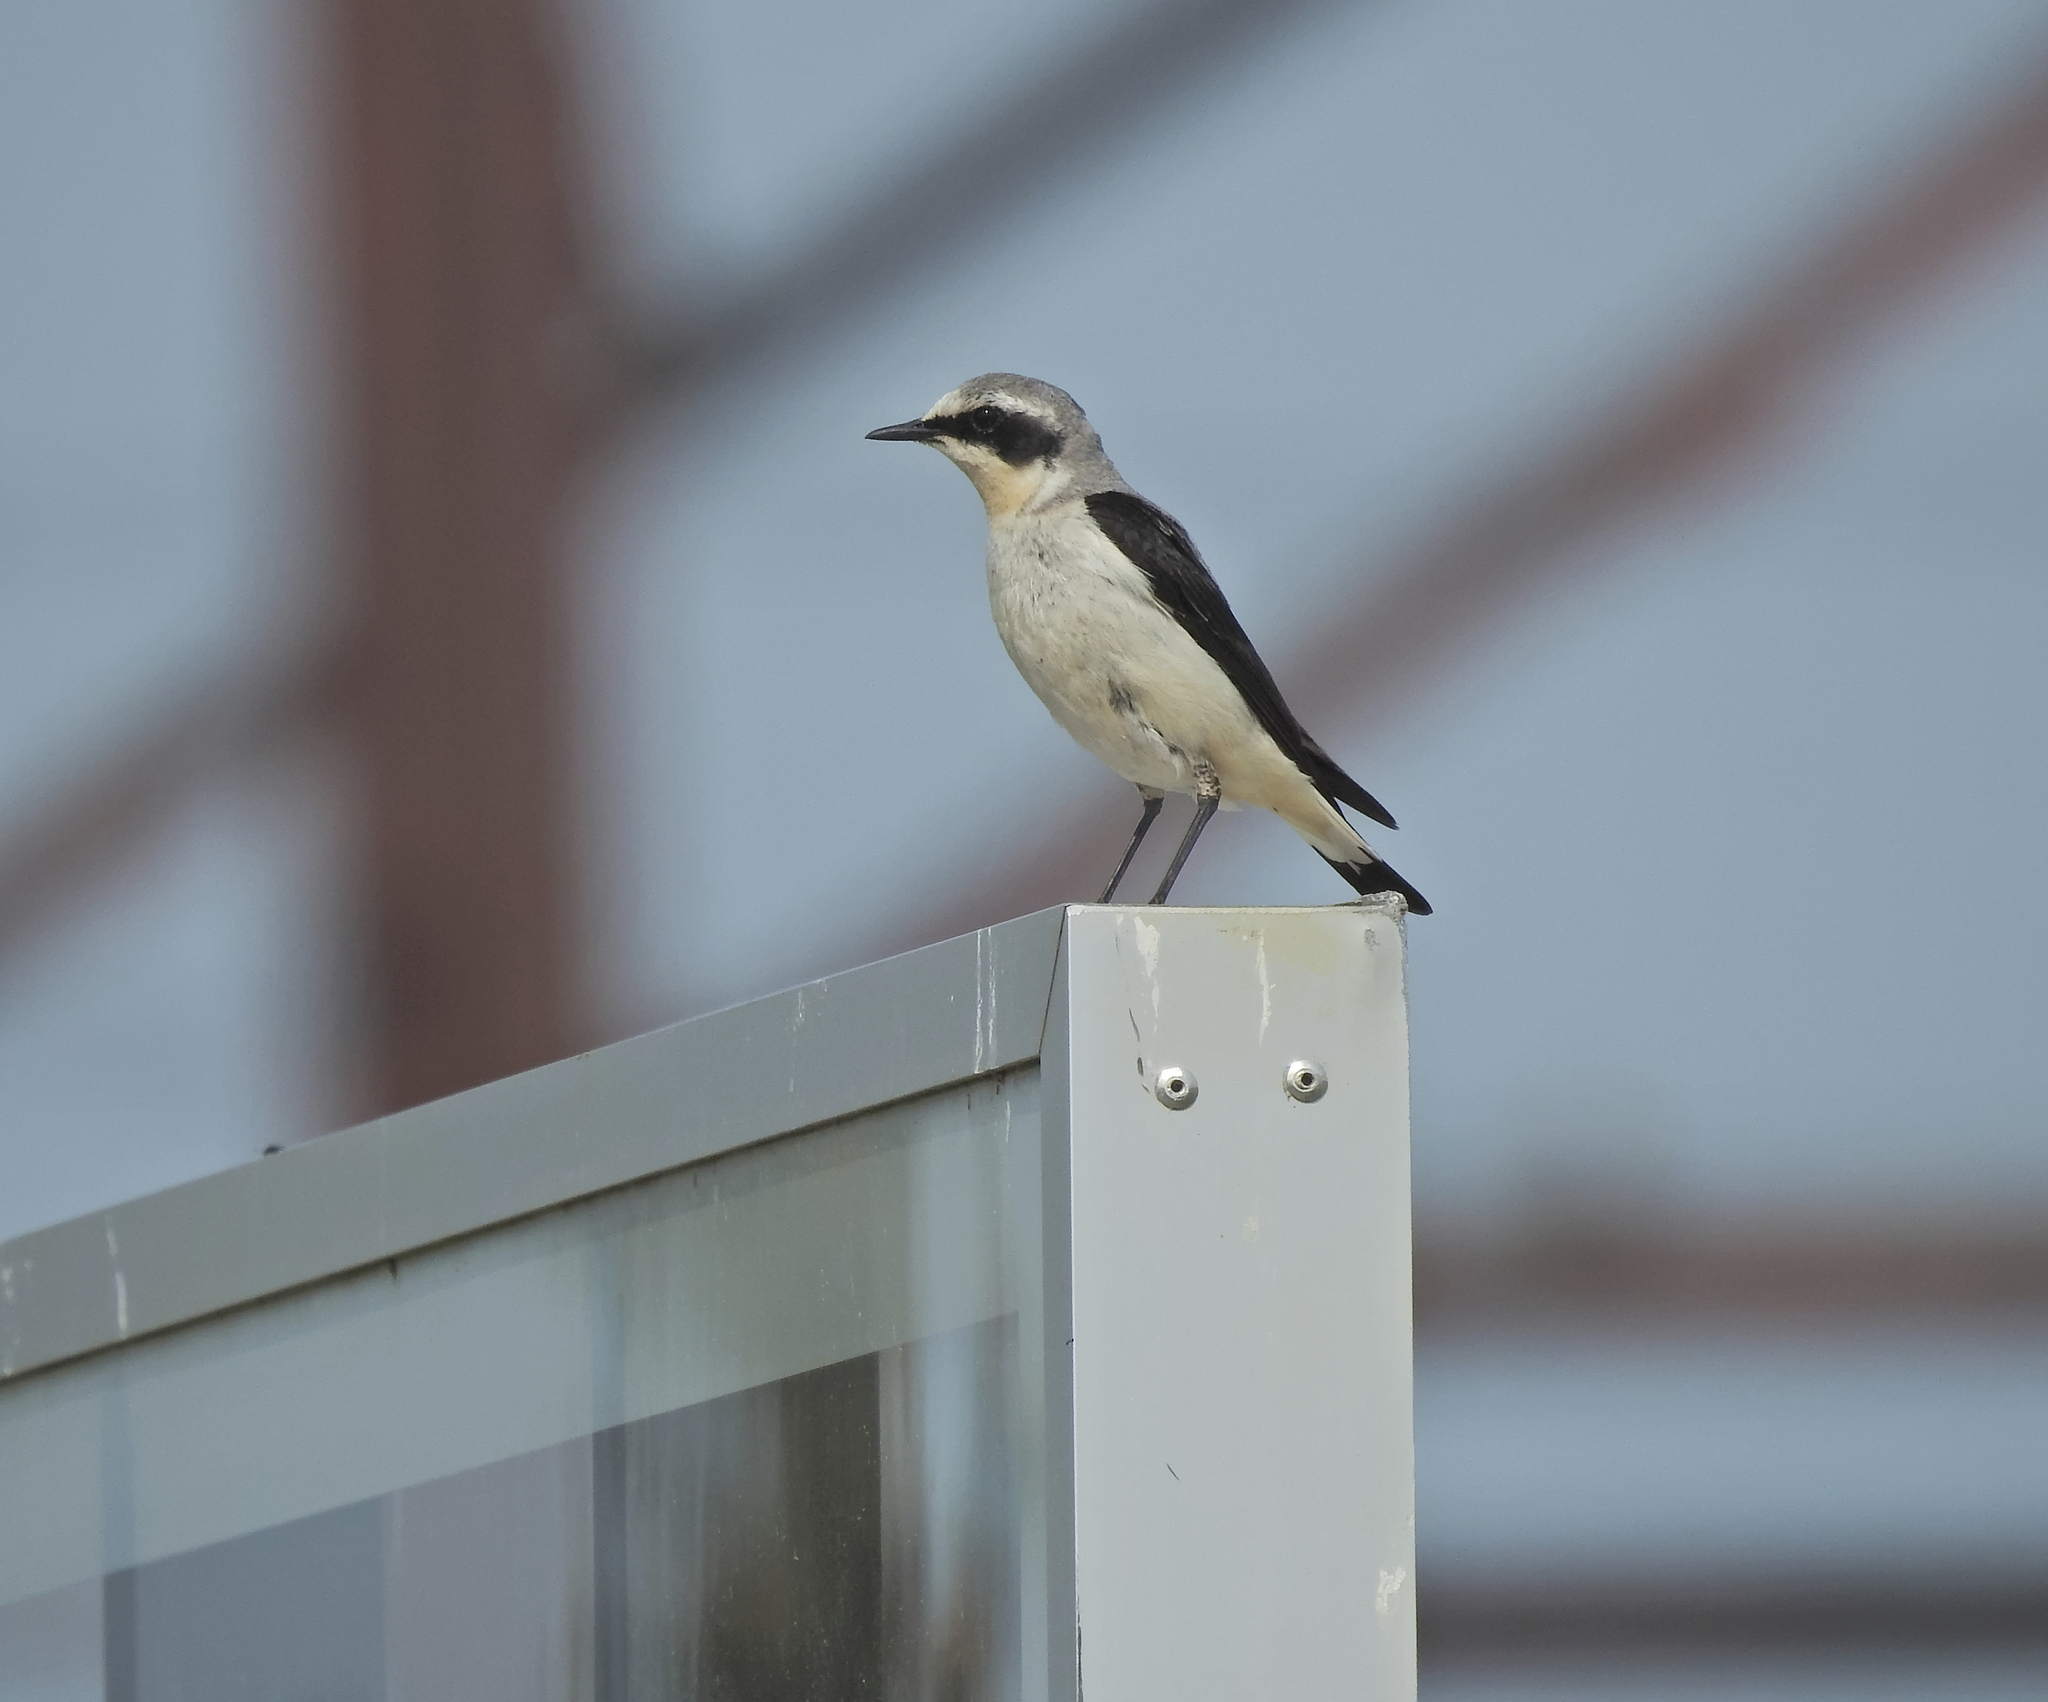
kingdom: Animalia
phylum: Chordata
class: Aves
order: Passeriformes
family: Muscicapidae
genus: Oenanthe
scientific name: Oenanthe oenanthe
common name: Northern wheatear
